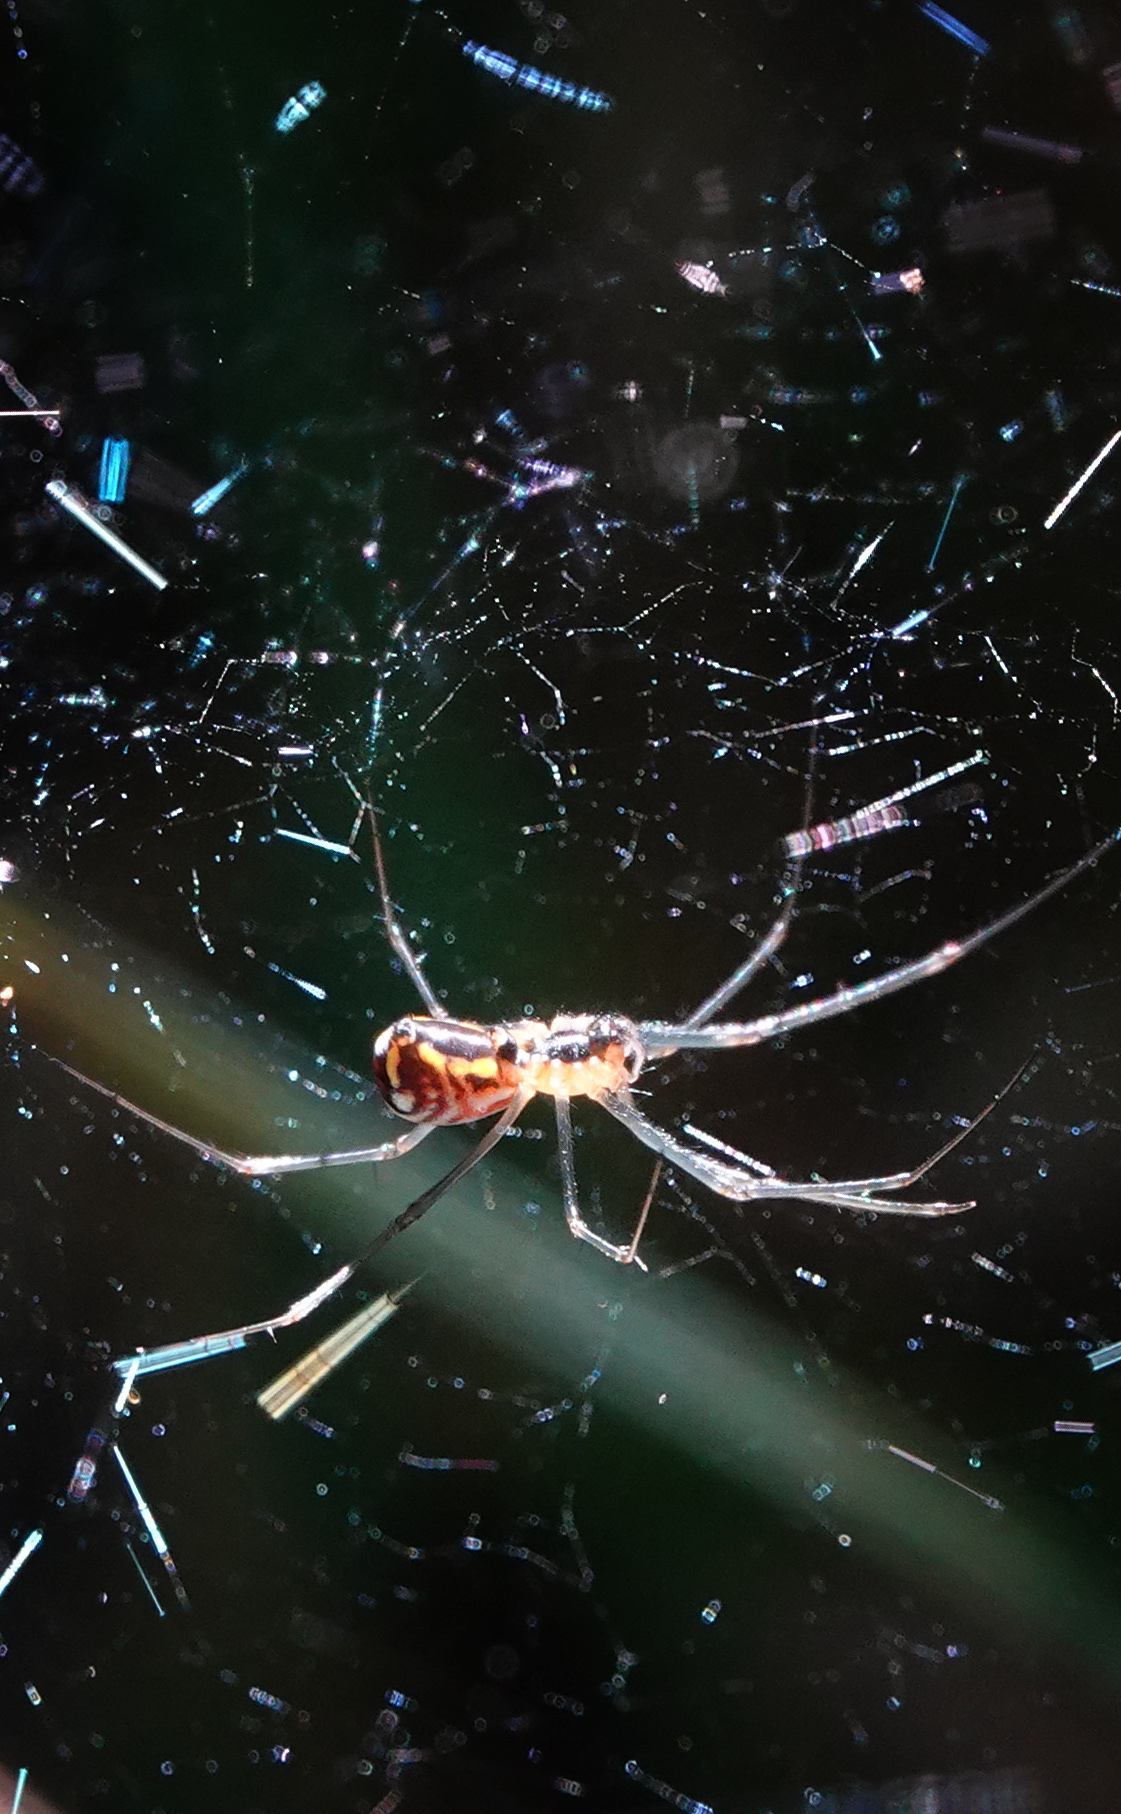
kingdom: Animalia
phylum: Arthropoda
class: Arachnida
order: Araneae
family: Linyphiidae
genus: Neriene
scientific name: Neriene radiata
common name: Filmy dome spider
